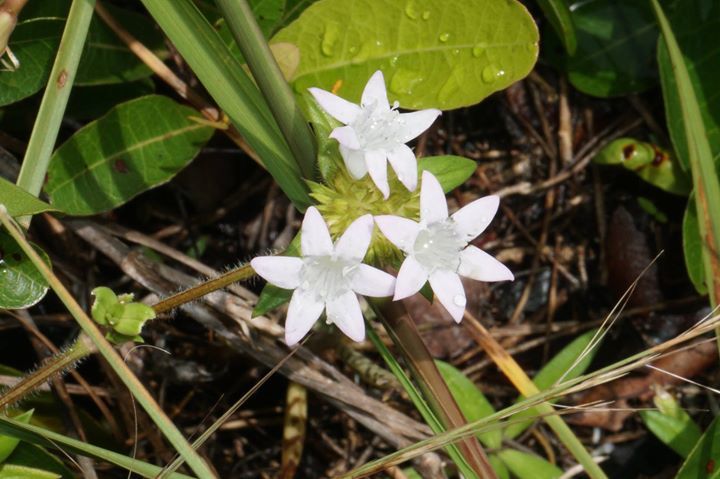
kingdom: Plantae
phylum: Tracheophyta
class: Magnoliopsida
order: Gentianales
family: Rubiaceae
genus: Richardia
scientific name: Richardia grandiflora
